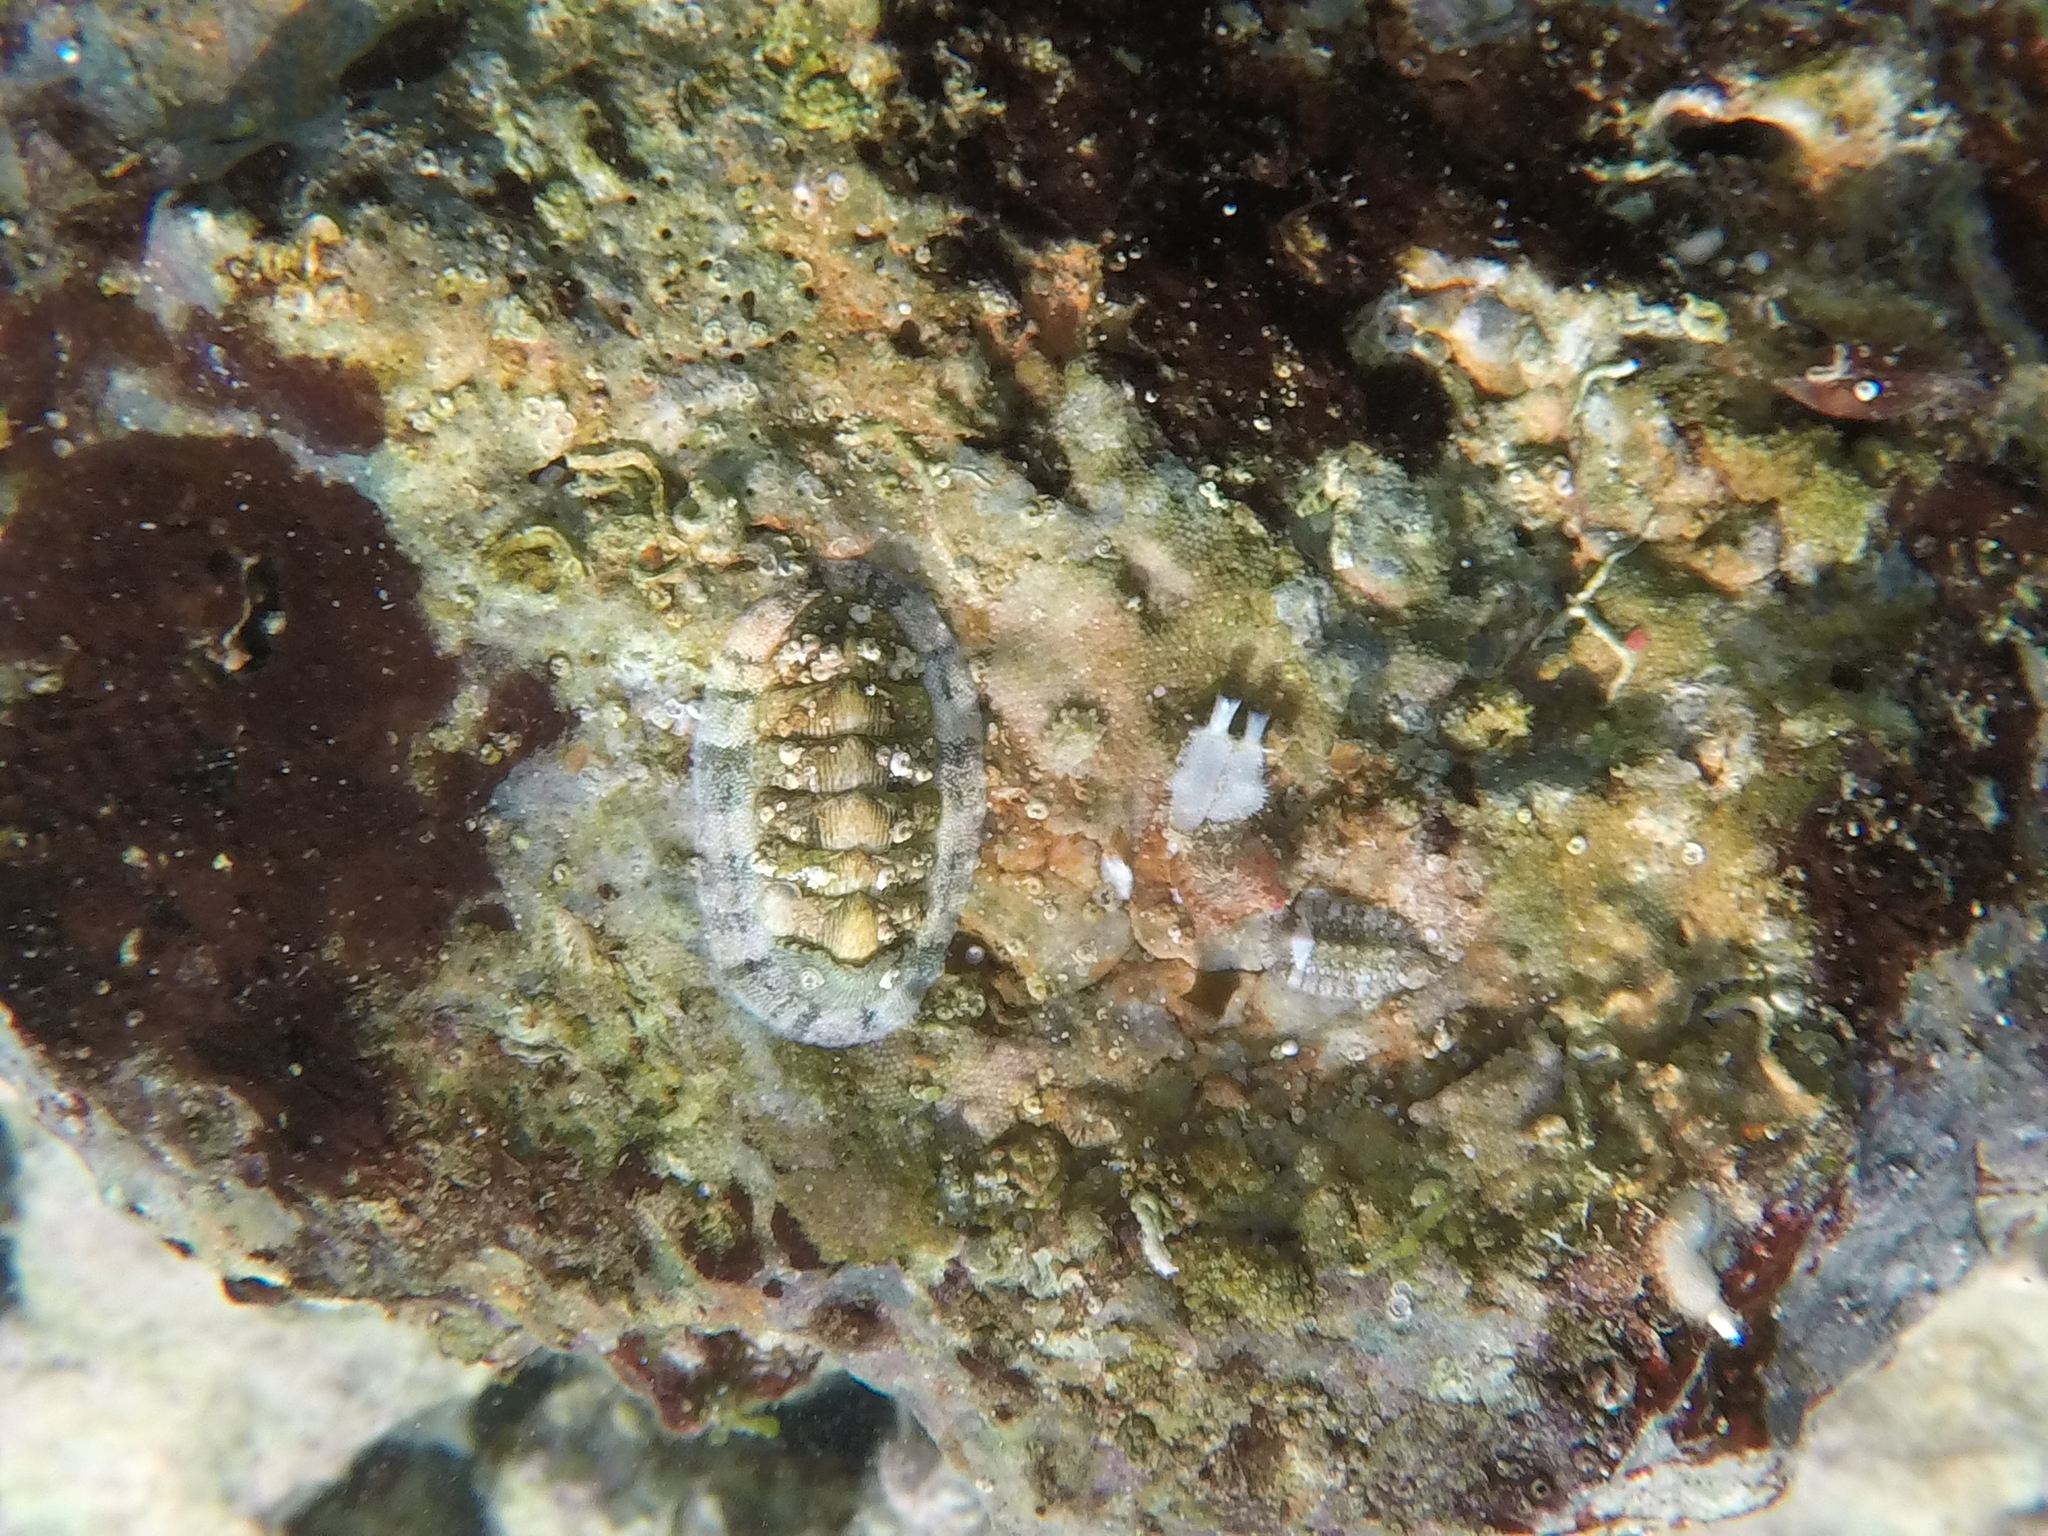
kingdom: Animalia
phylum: Mollusca
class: Polyplacophora
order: Chitonida
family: Chitonidae
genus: Rhyssoplax
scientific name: Rhyssoplax olivacea
